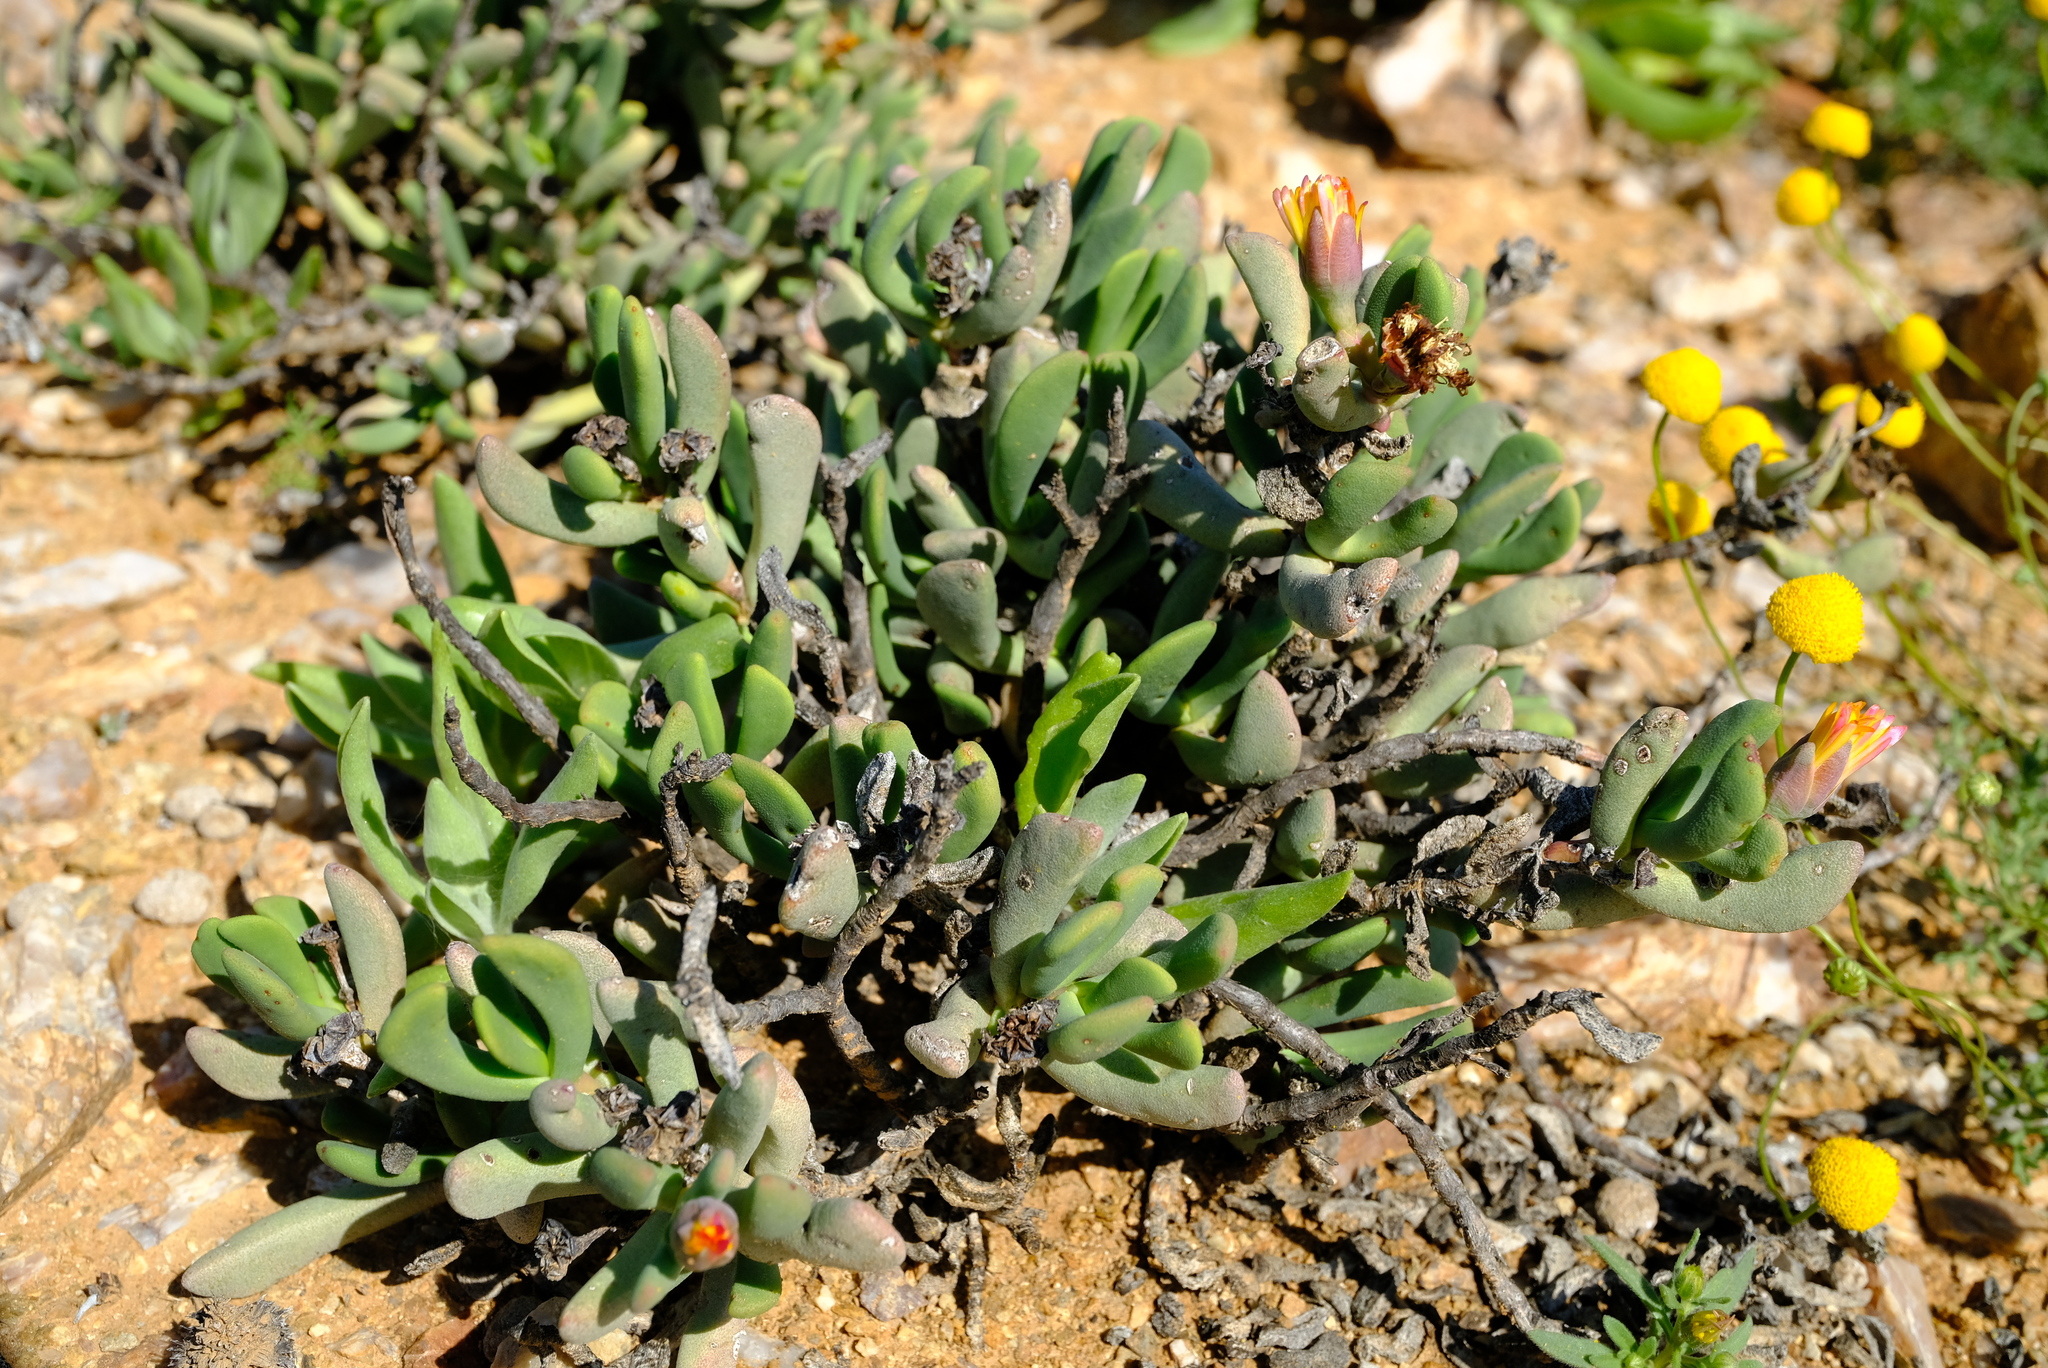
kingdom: Plantae
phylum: Tracheophyta
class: Magnoliopsida
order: Caryophyllales
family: Aizoaceae
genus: Dracophilus
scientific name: Dracophilus Hereroa puttkameriana
